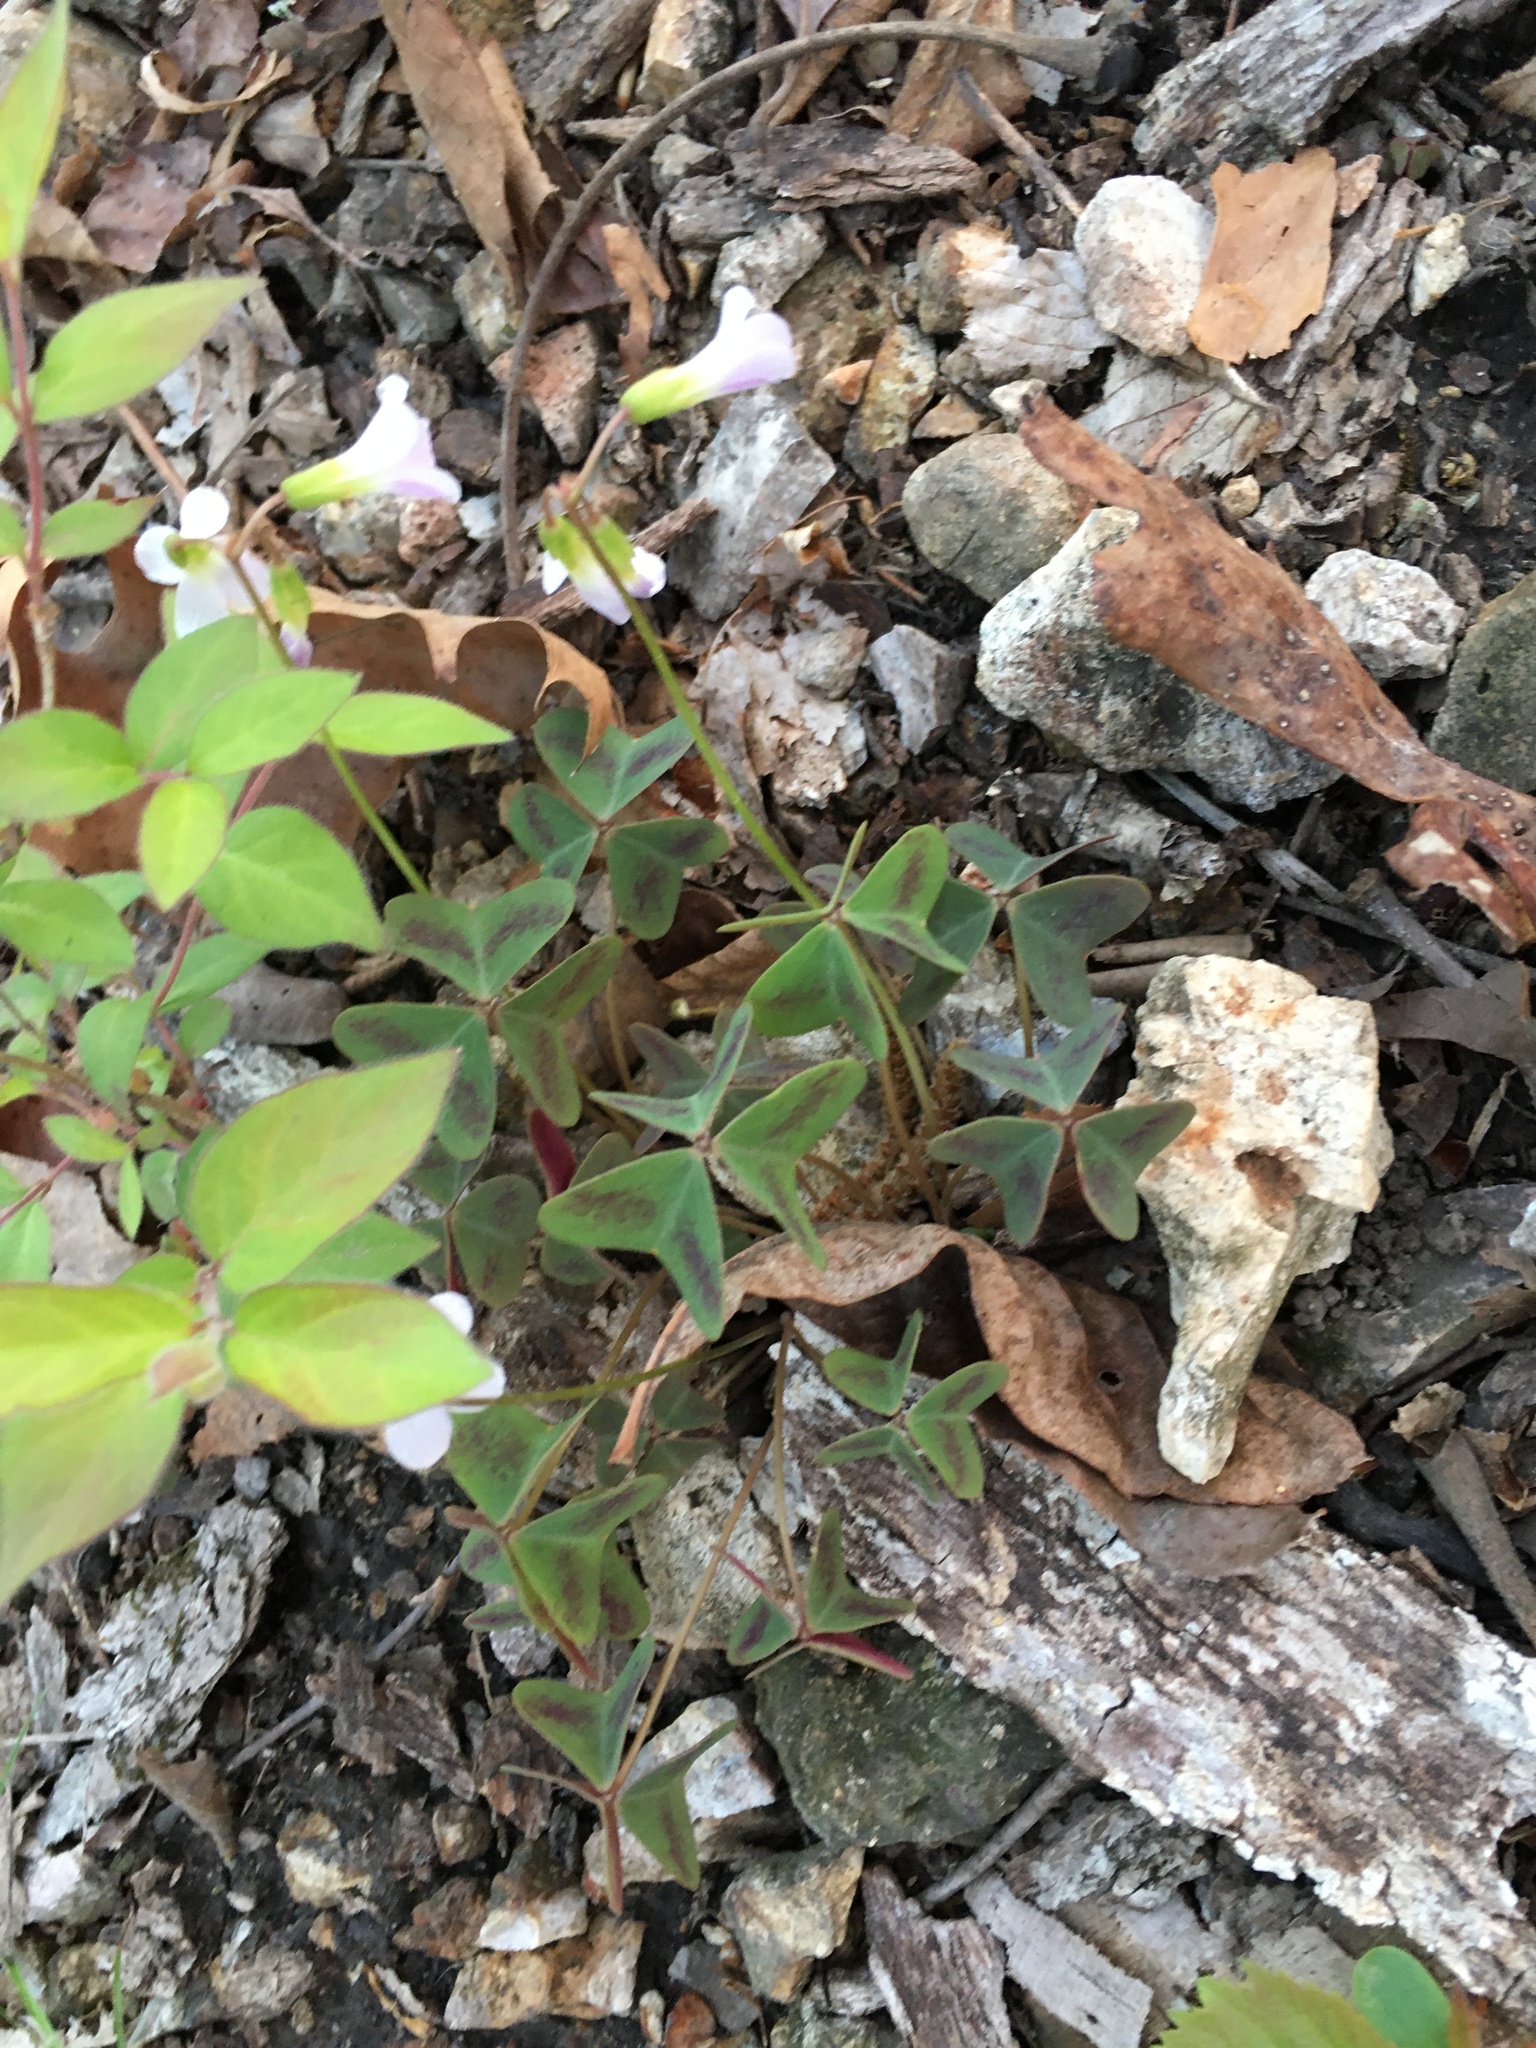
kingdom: Plantae
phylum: Tracheophyta
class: Magnoliopsida
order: Oxalidales
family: Oxalidaceae
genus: Oxalis
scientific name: Oxalis violacea
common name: Violet wood-sorrel
